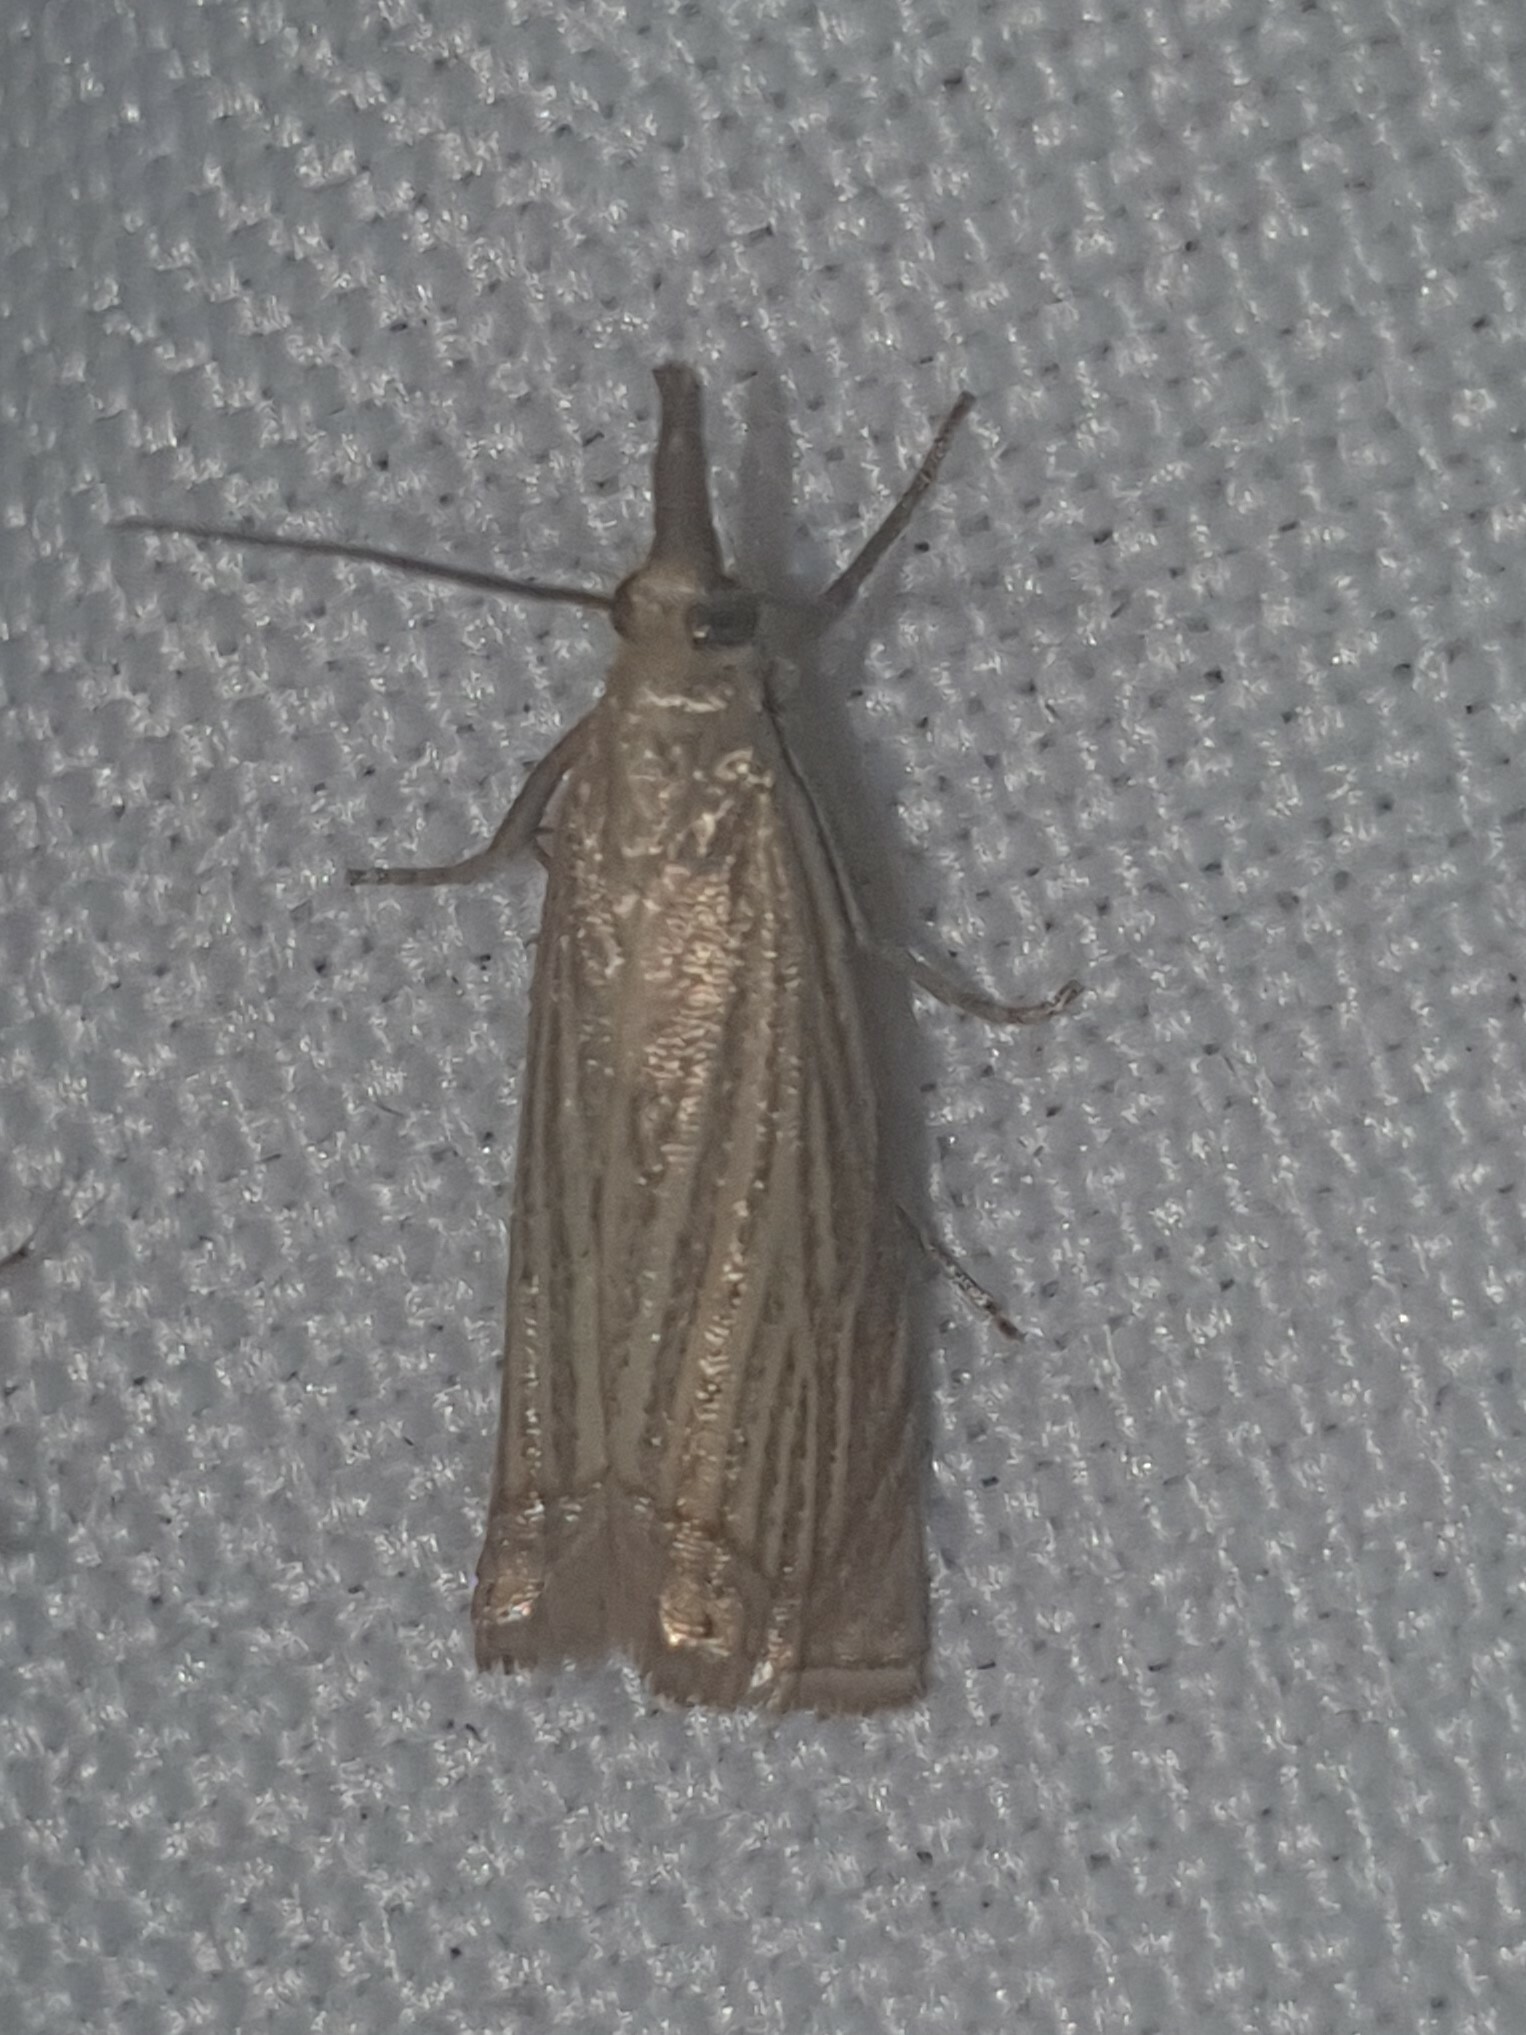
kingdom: Animalia
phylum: Arthropoda
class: Insecta
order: Lepidoptera
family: Crambidae
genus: Chrysoteuchia
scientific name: Chrysoteuchia culmella
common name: Garden grass-veneer
